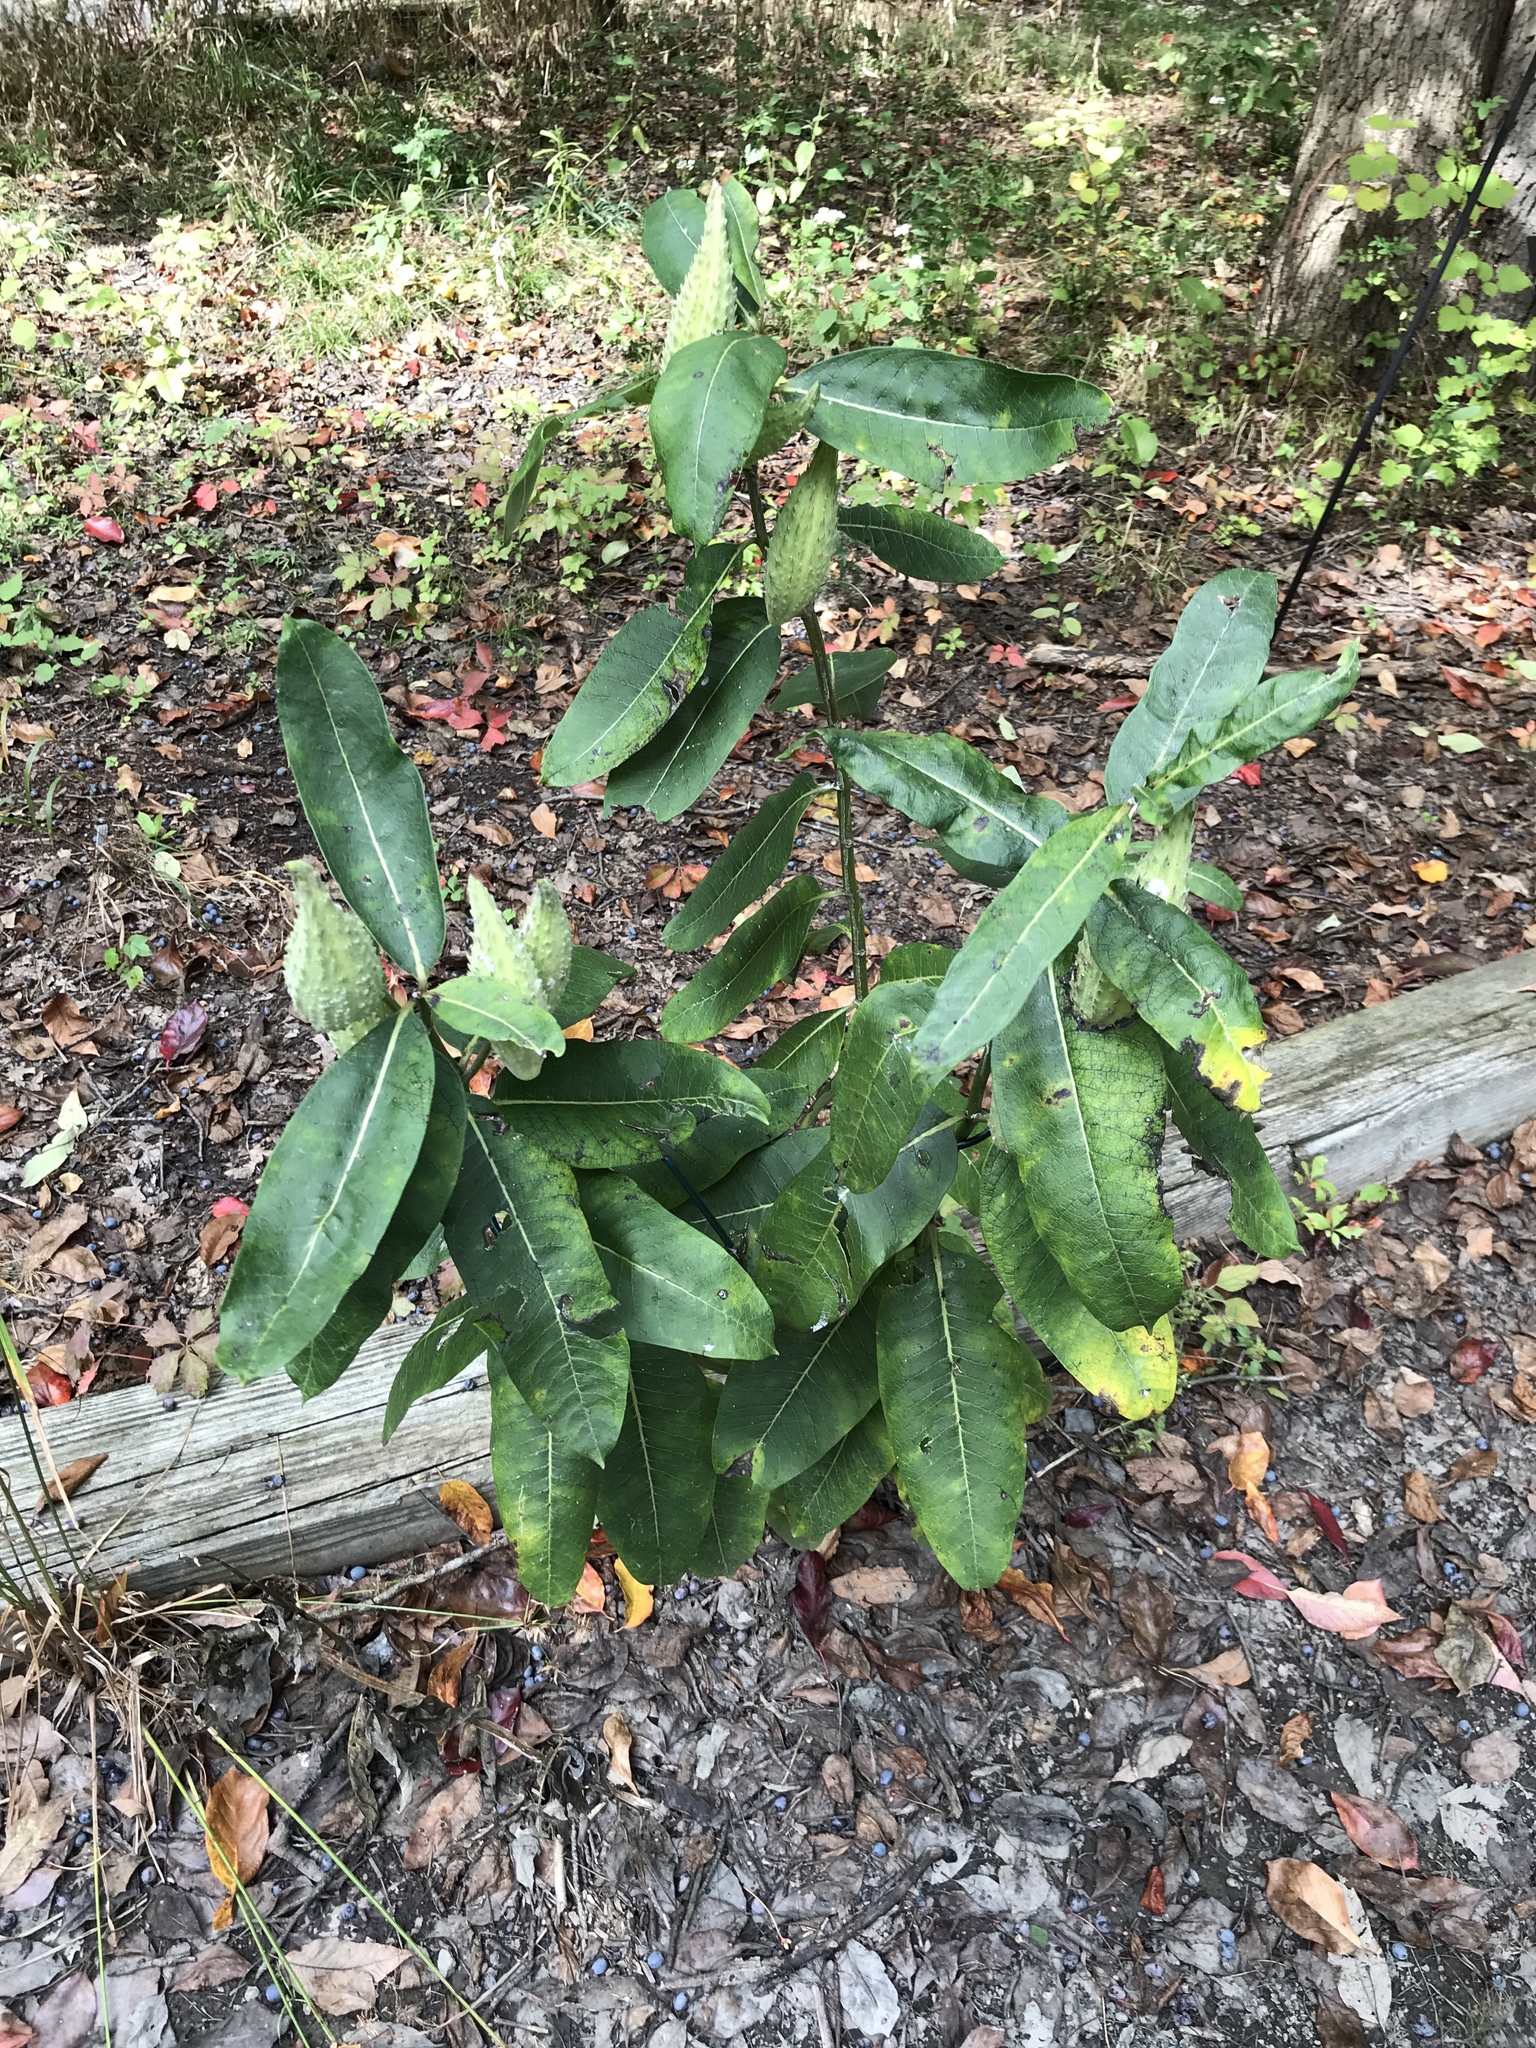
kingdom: Plantae
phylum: Tracheophyta
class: Magnoliopsida
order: Gentianales
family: Apocynaceae
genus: Asclepias
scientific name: Asclepias syriaca
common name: Common milkweed
